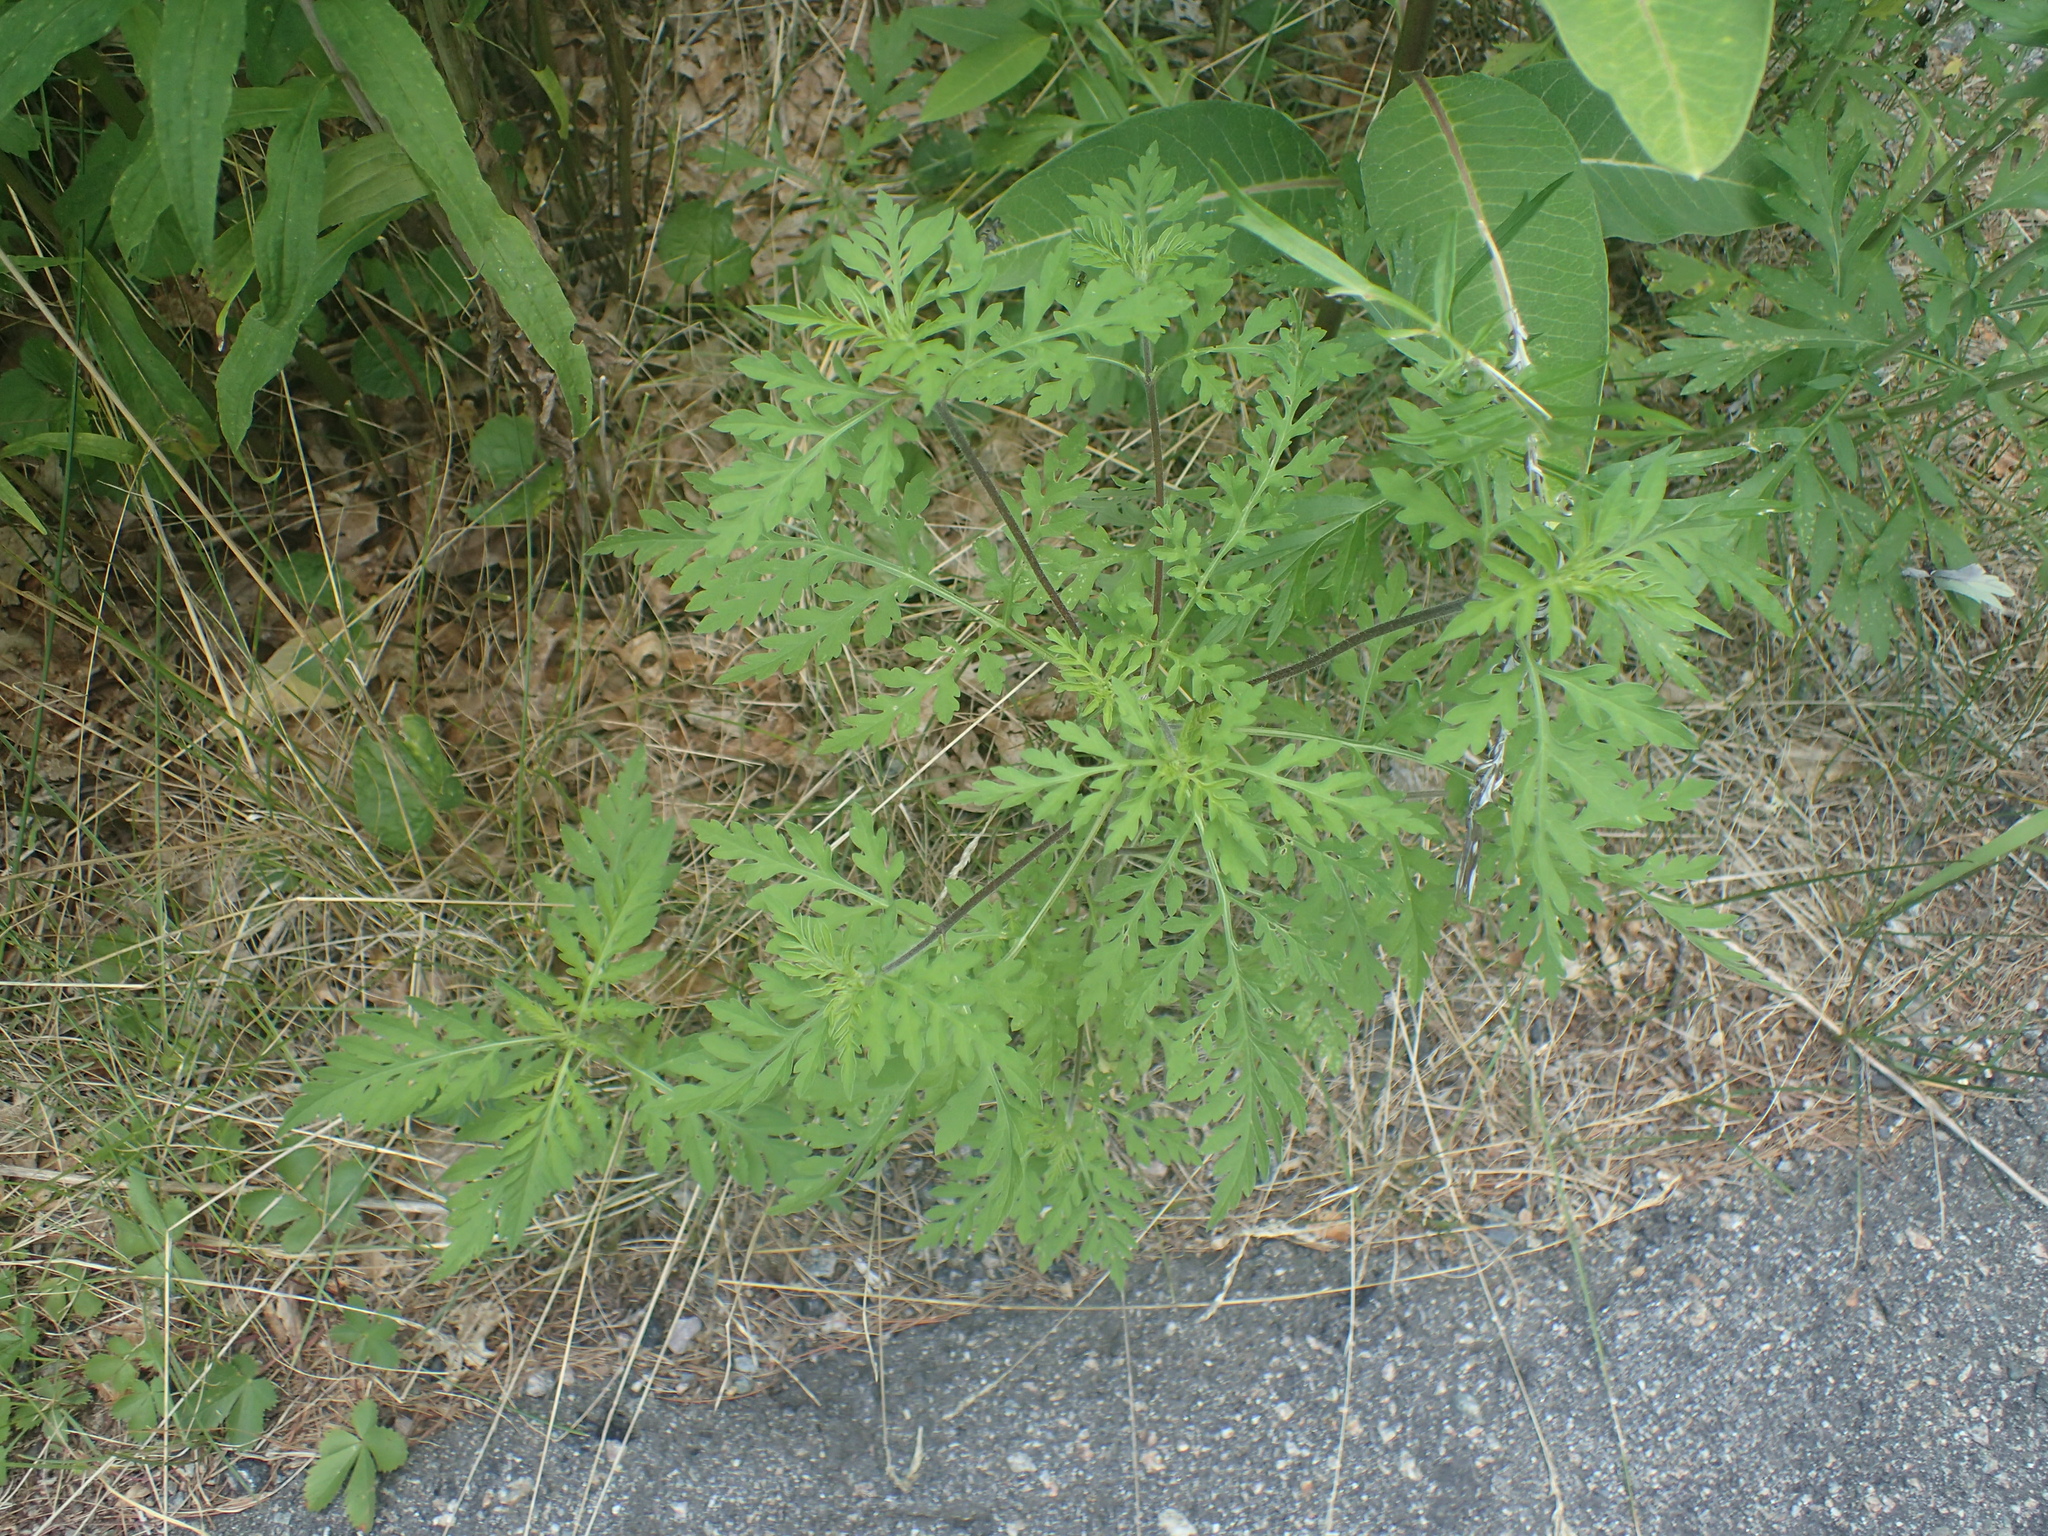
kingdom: Plantae
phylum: Tracheophyta
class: Magnoliopsida
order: Asterales
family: Asteraceae
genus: Ambrosia
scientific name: Ambrosia artemisiifolia
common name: Annual ragweed
